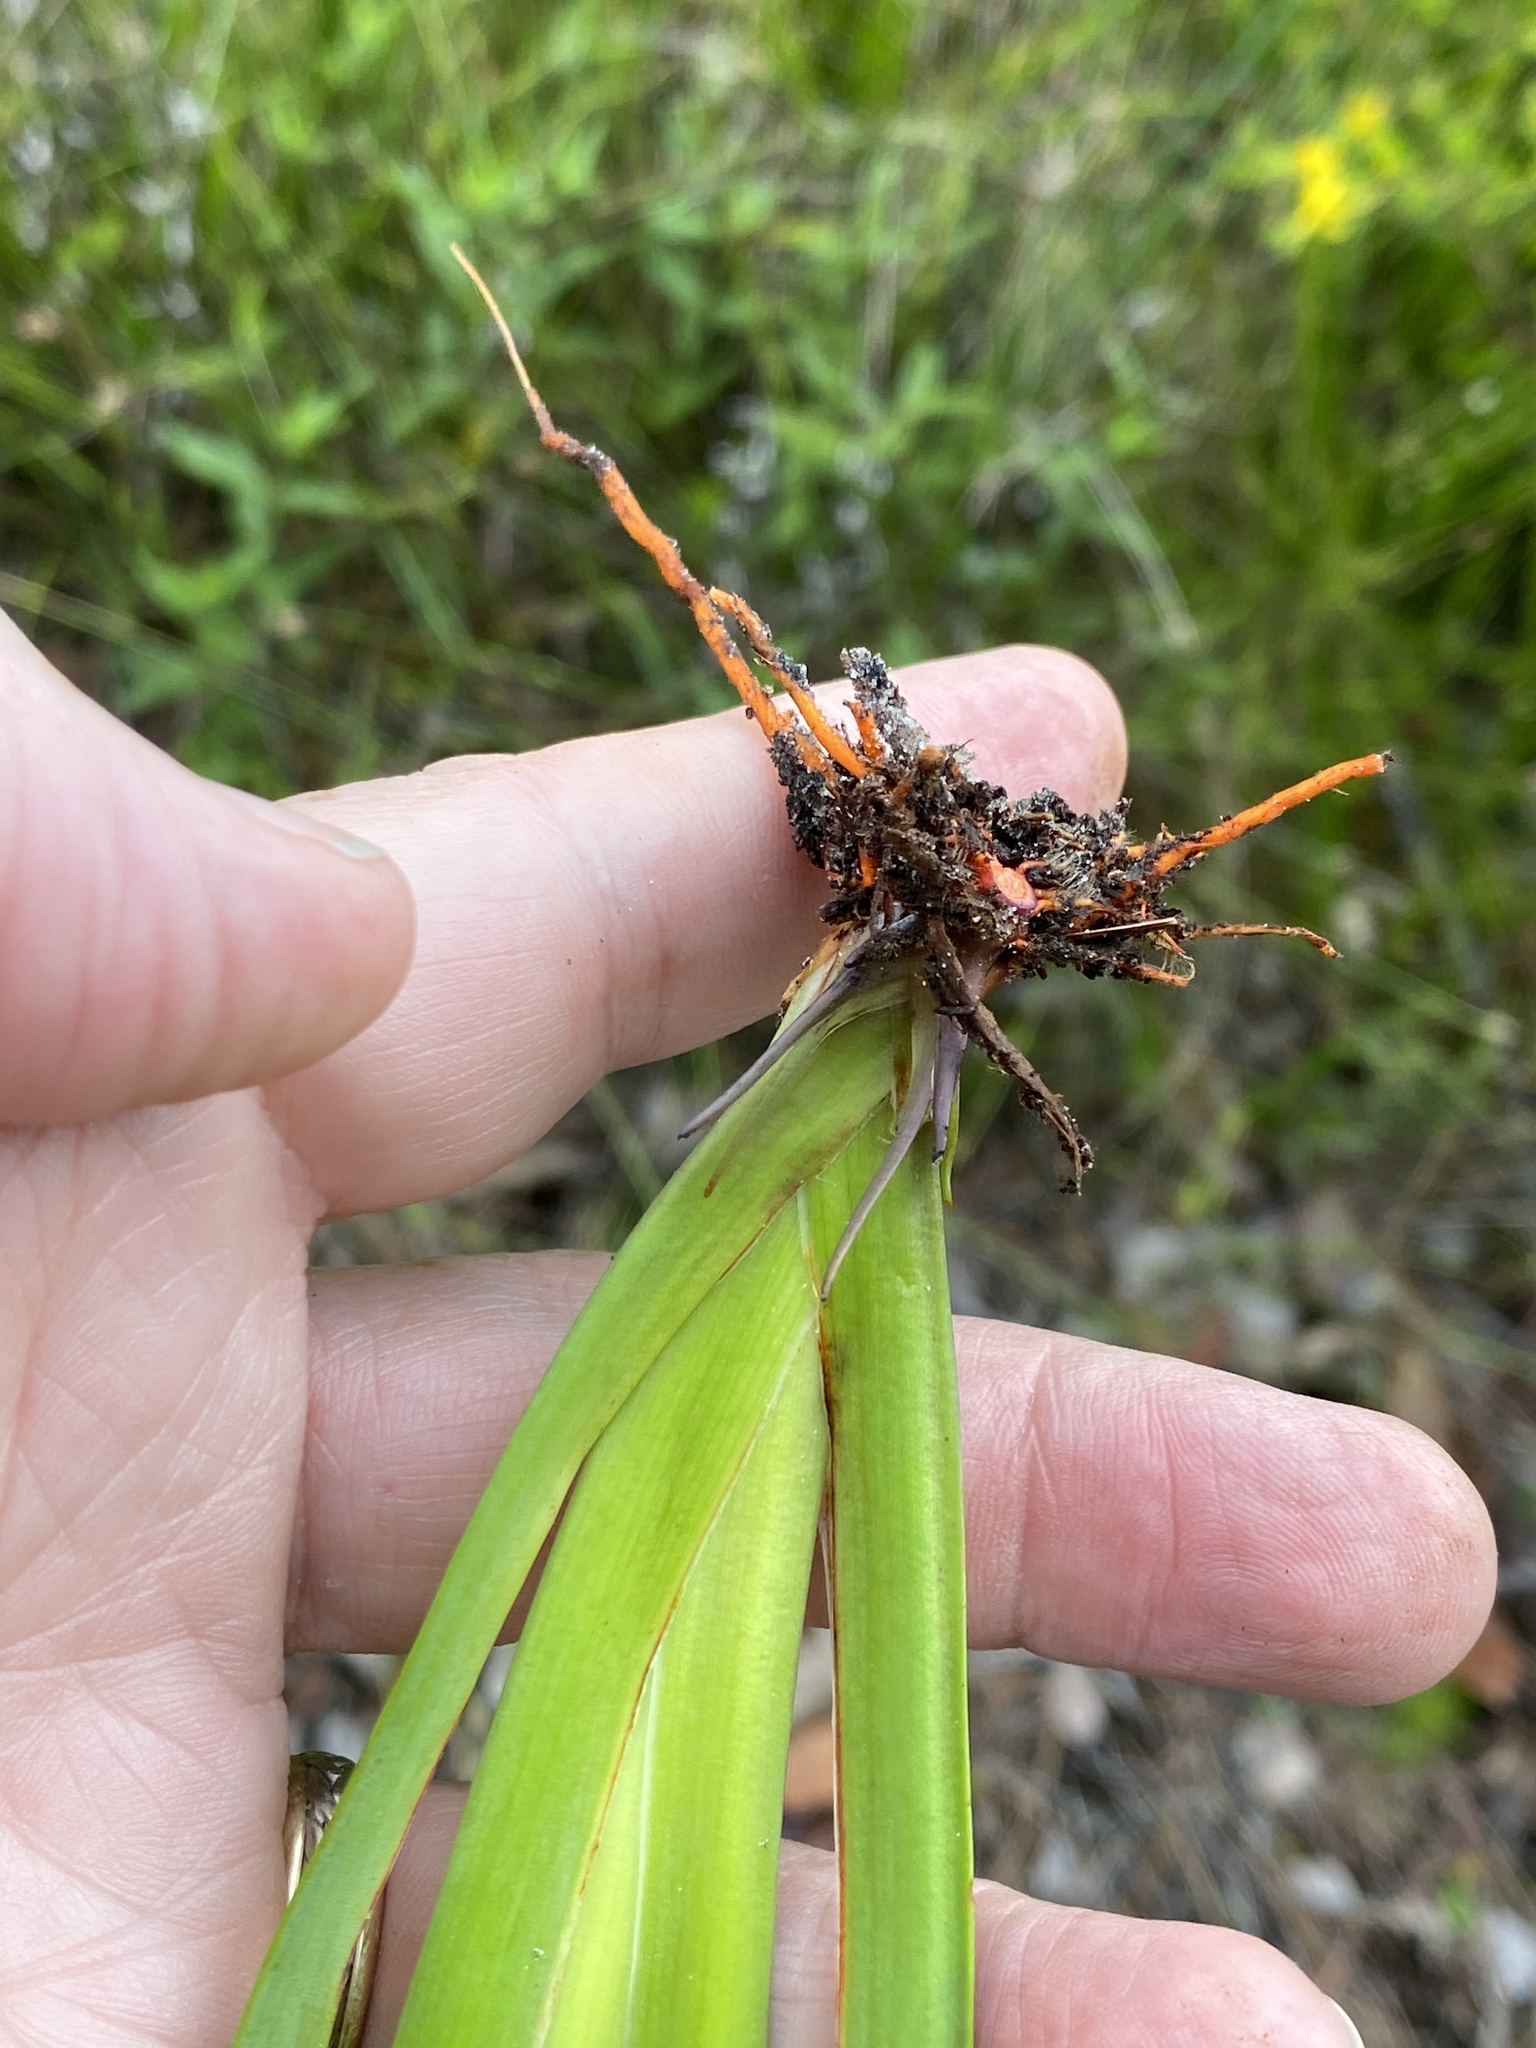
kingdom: Plantae
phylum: Tracheophyta
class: Liliopsida
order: Commelinales
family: Haemodoraceae
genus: Lachnanthes
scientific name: Lachnanthes caroliana
